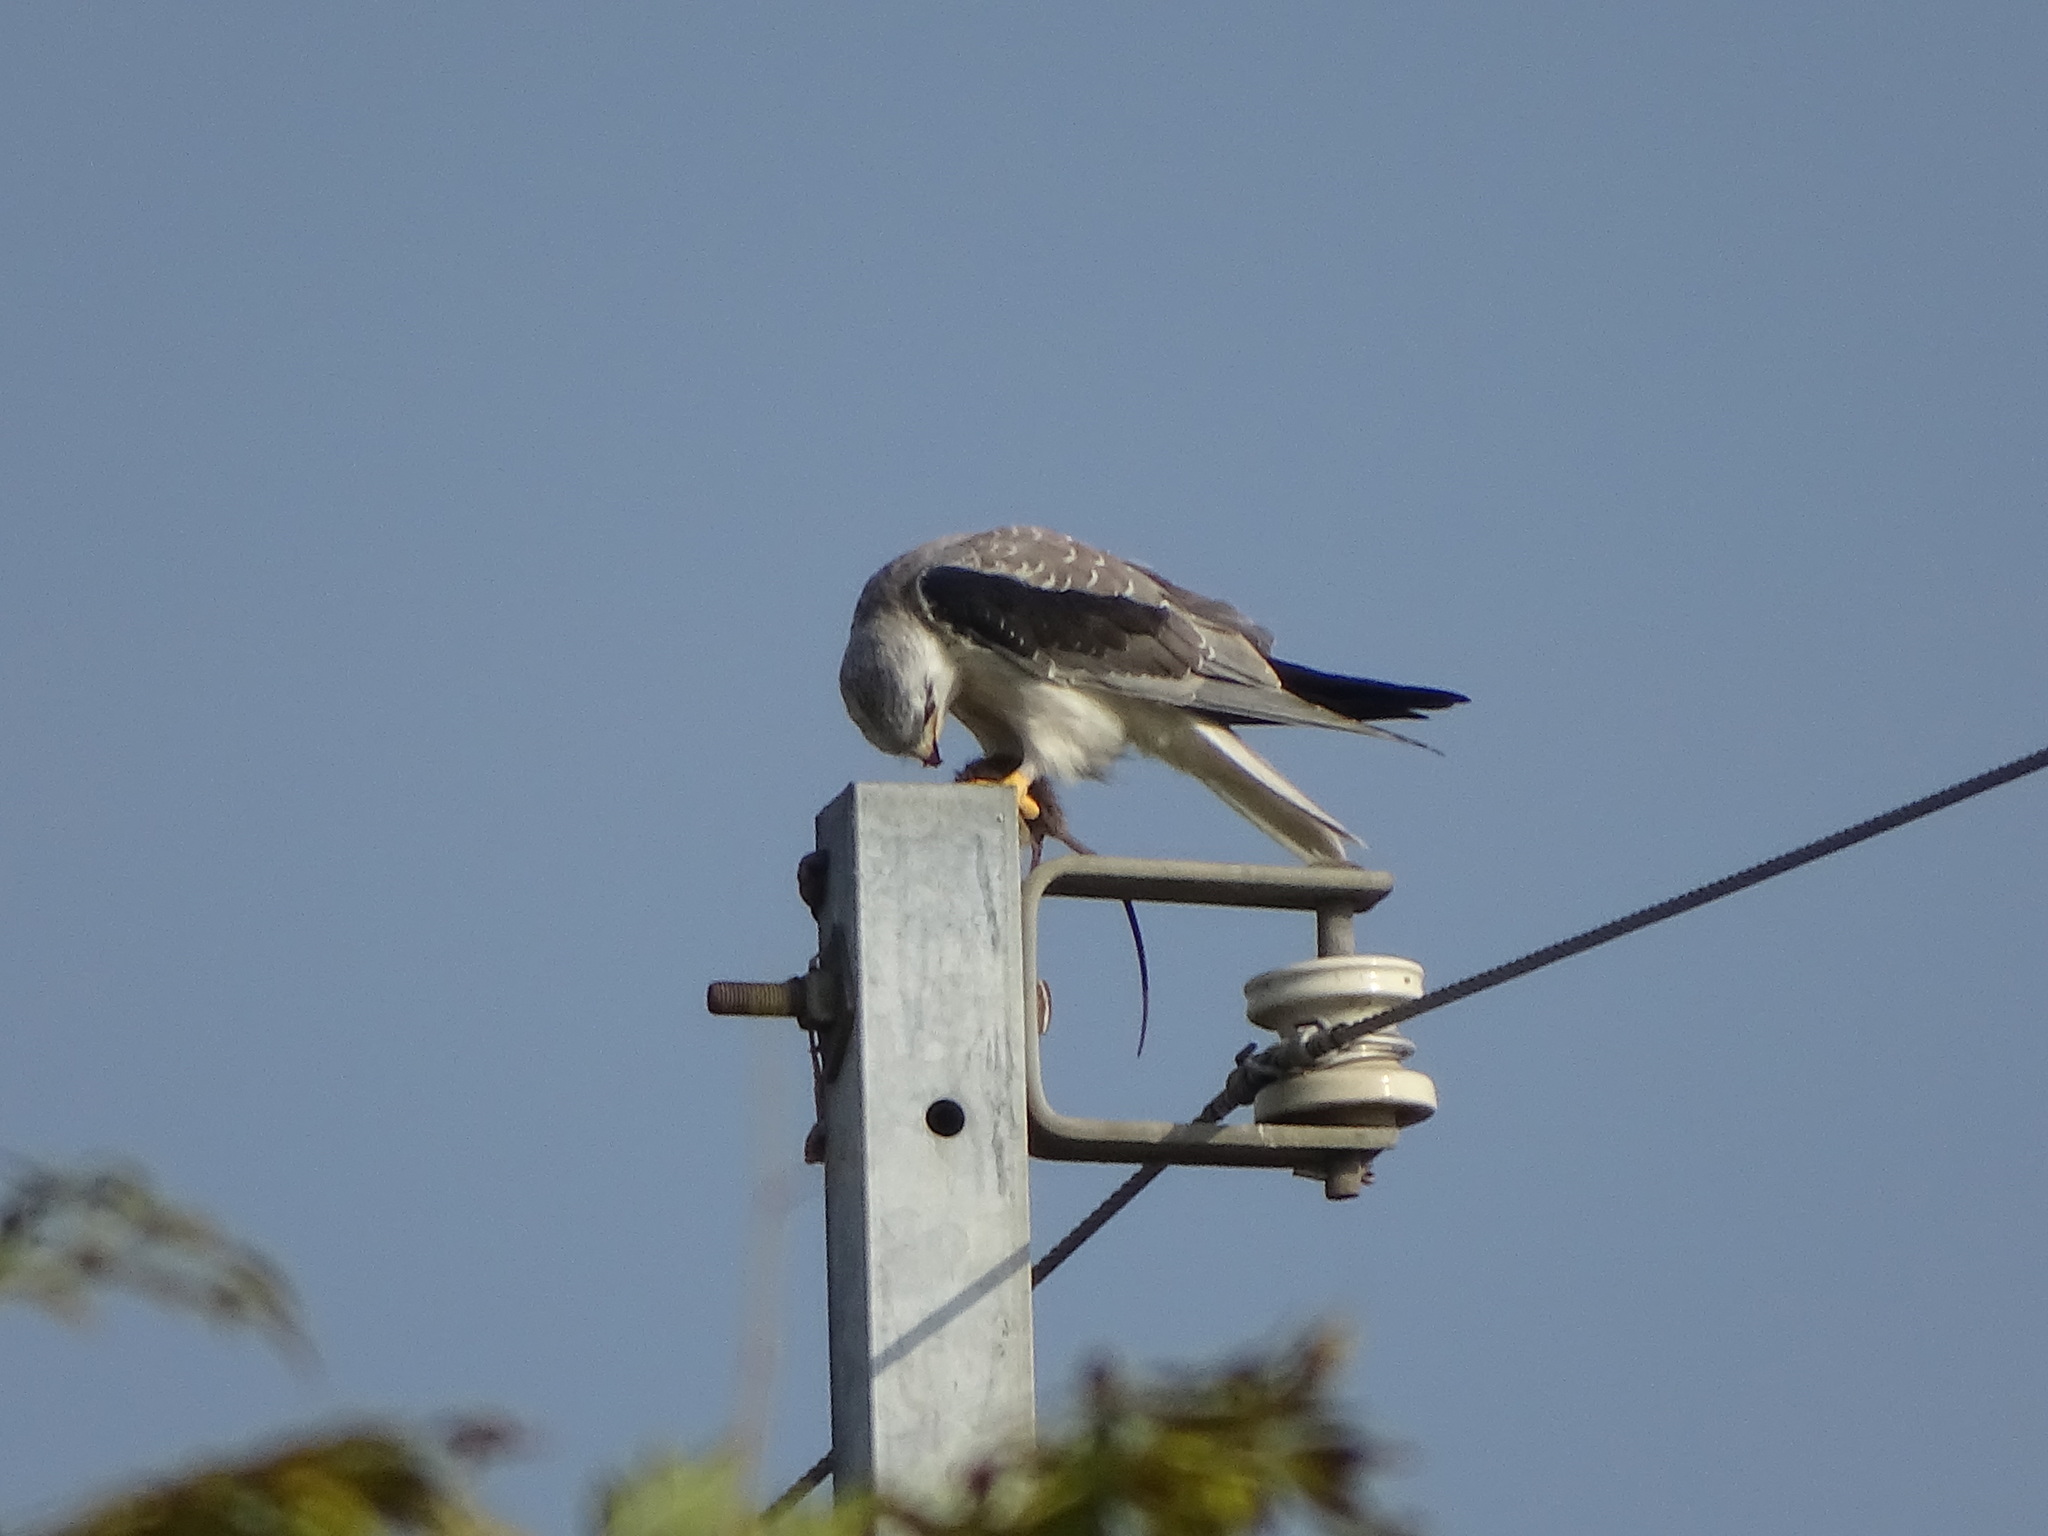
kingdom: Animalia
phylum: Chordata
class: Aves
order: Accipitriformes
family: Accipitridae
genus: Elanus
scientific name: Elanus caeruleus
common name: Black-winged kite
